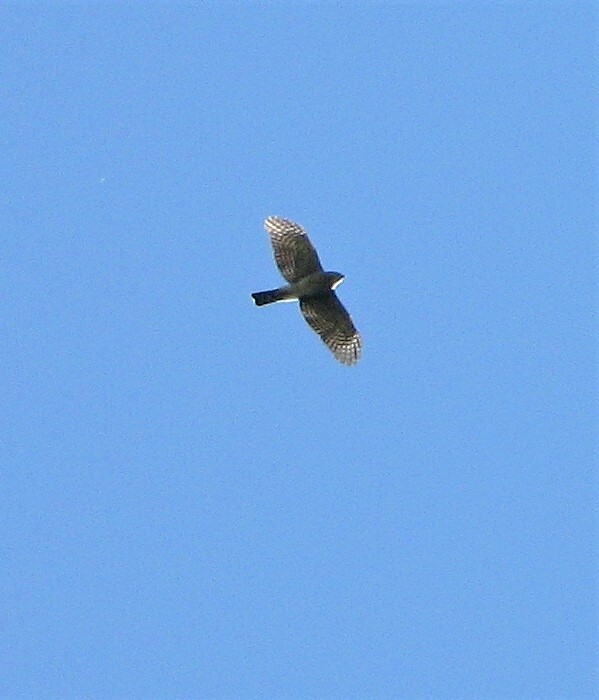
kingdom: Animalia
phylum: Chordata
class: Aves
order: Accipitriformes
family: Accipitridae
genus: Accipiter
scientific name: Accipiter striatus
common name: Sharp-shinned hawk
